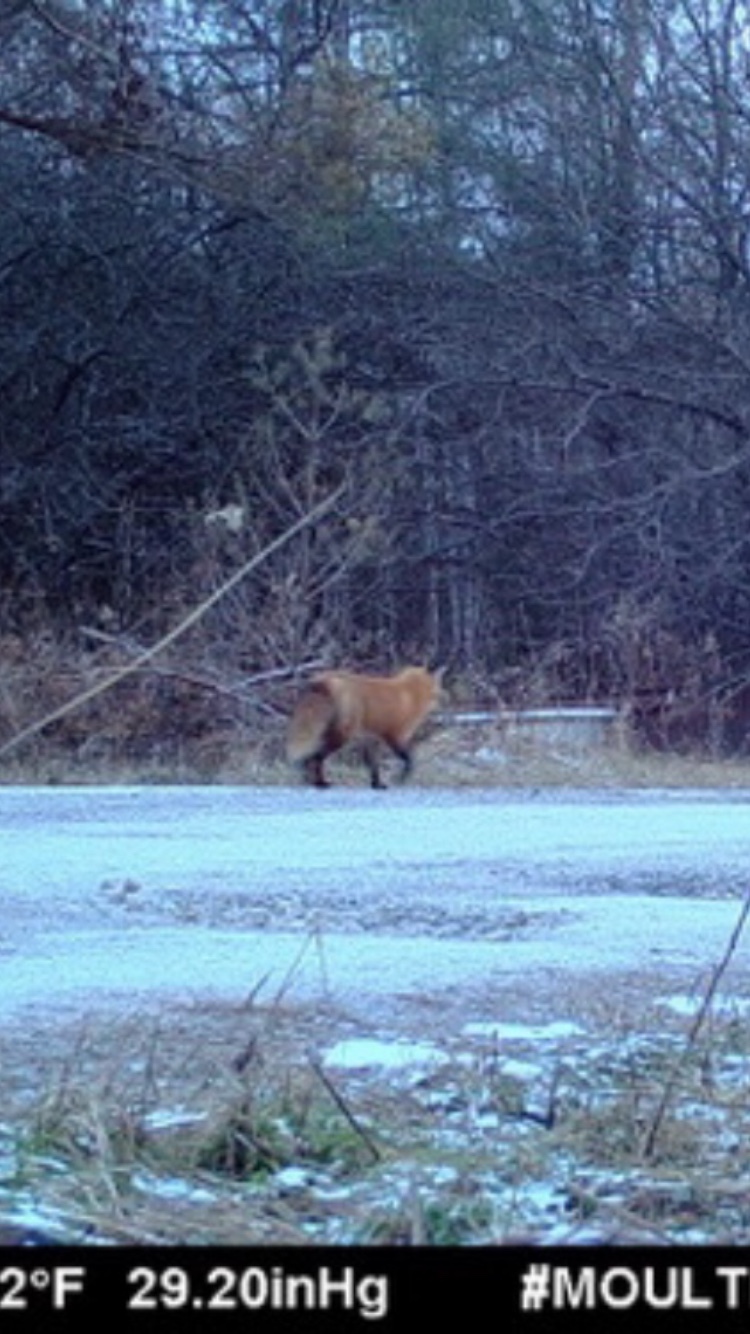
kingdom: Animalia
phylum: Chordata
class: Mammalia
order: Carnivora
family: Canidae
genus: Vulpes
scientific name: Vulpes vulpes
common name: Red fox
